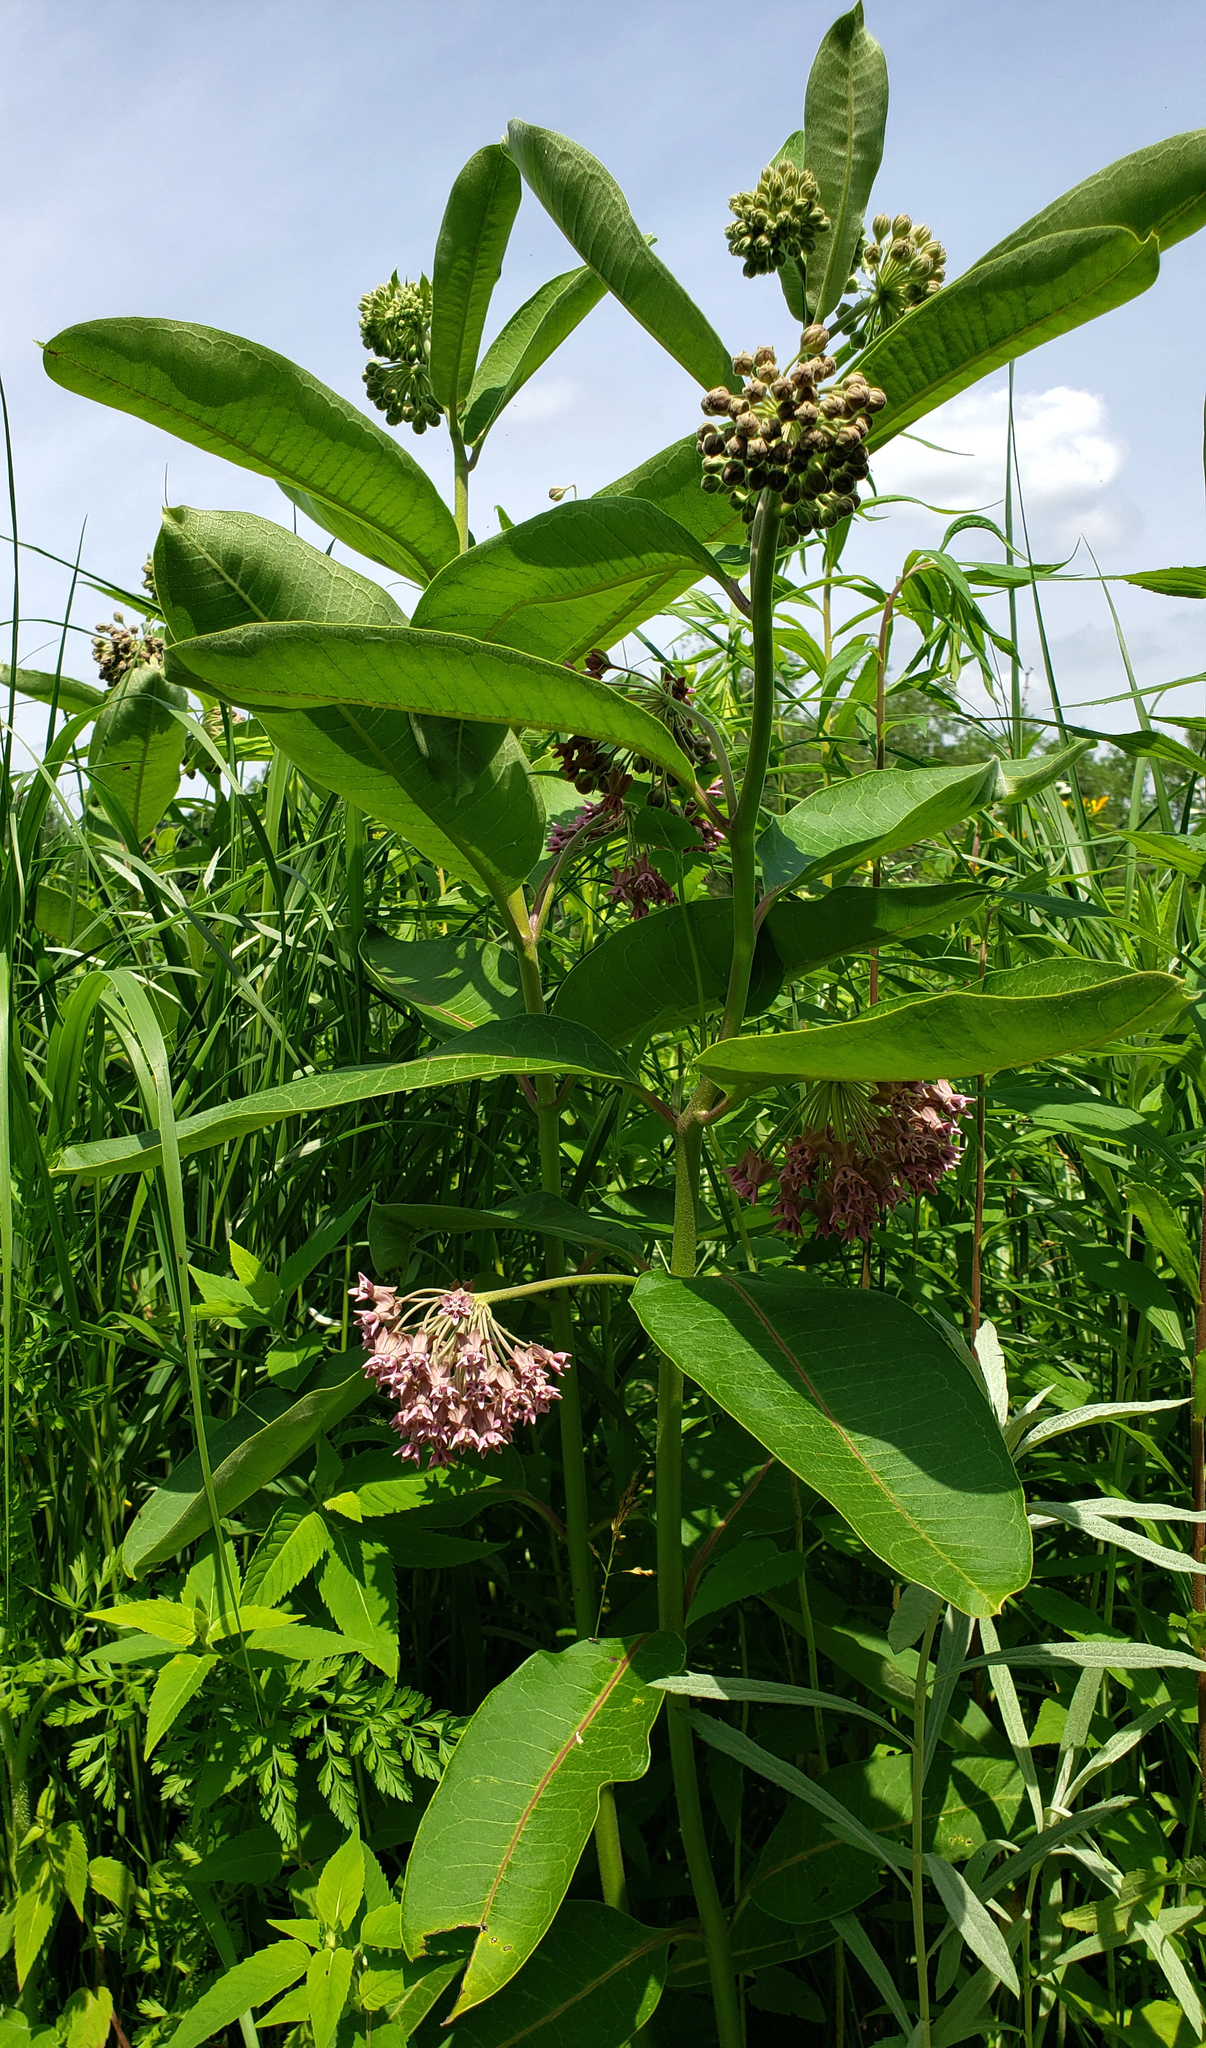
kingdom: Plantae
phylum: Tracheophyta
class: Magnoliopsida
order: Gentianales
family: Apocynaceae
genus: Asclepias
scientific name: Asclepias syriaca
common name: Common milkweed
